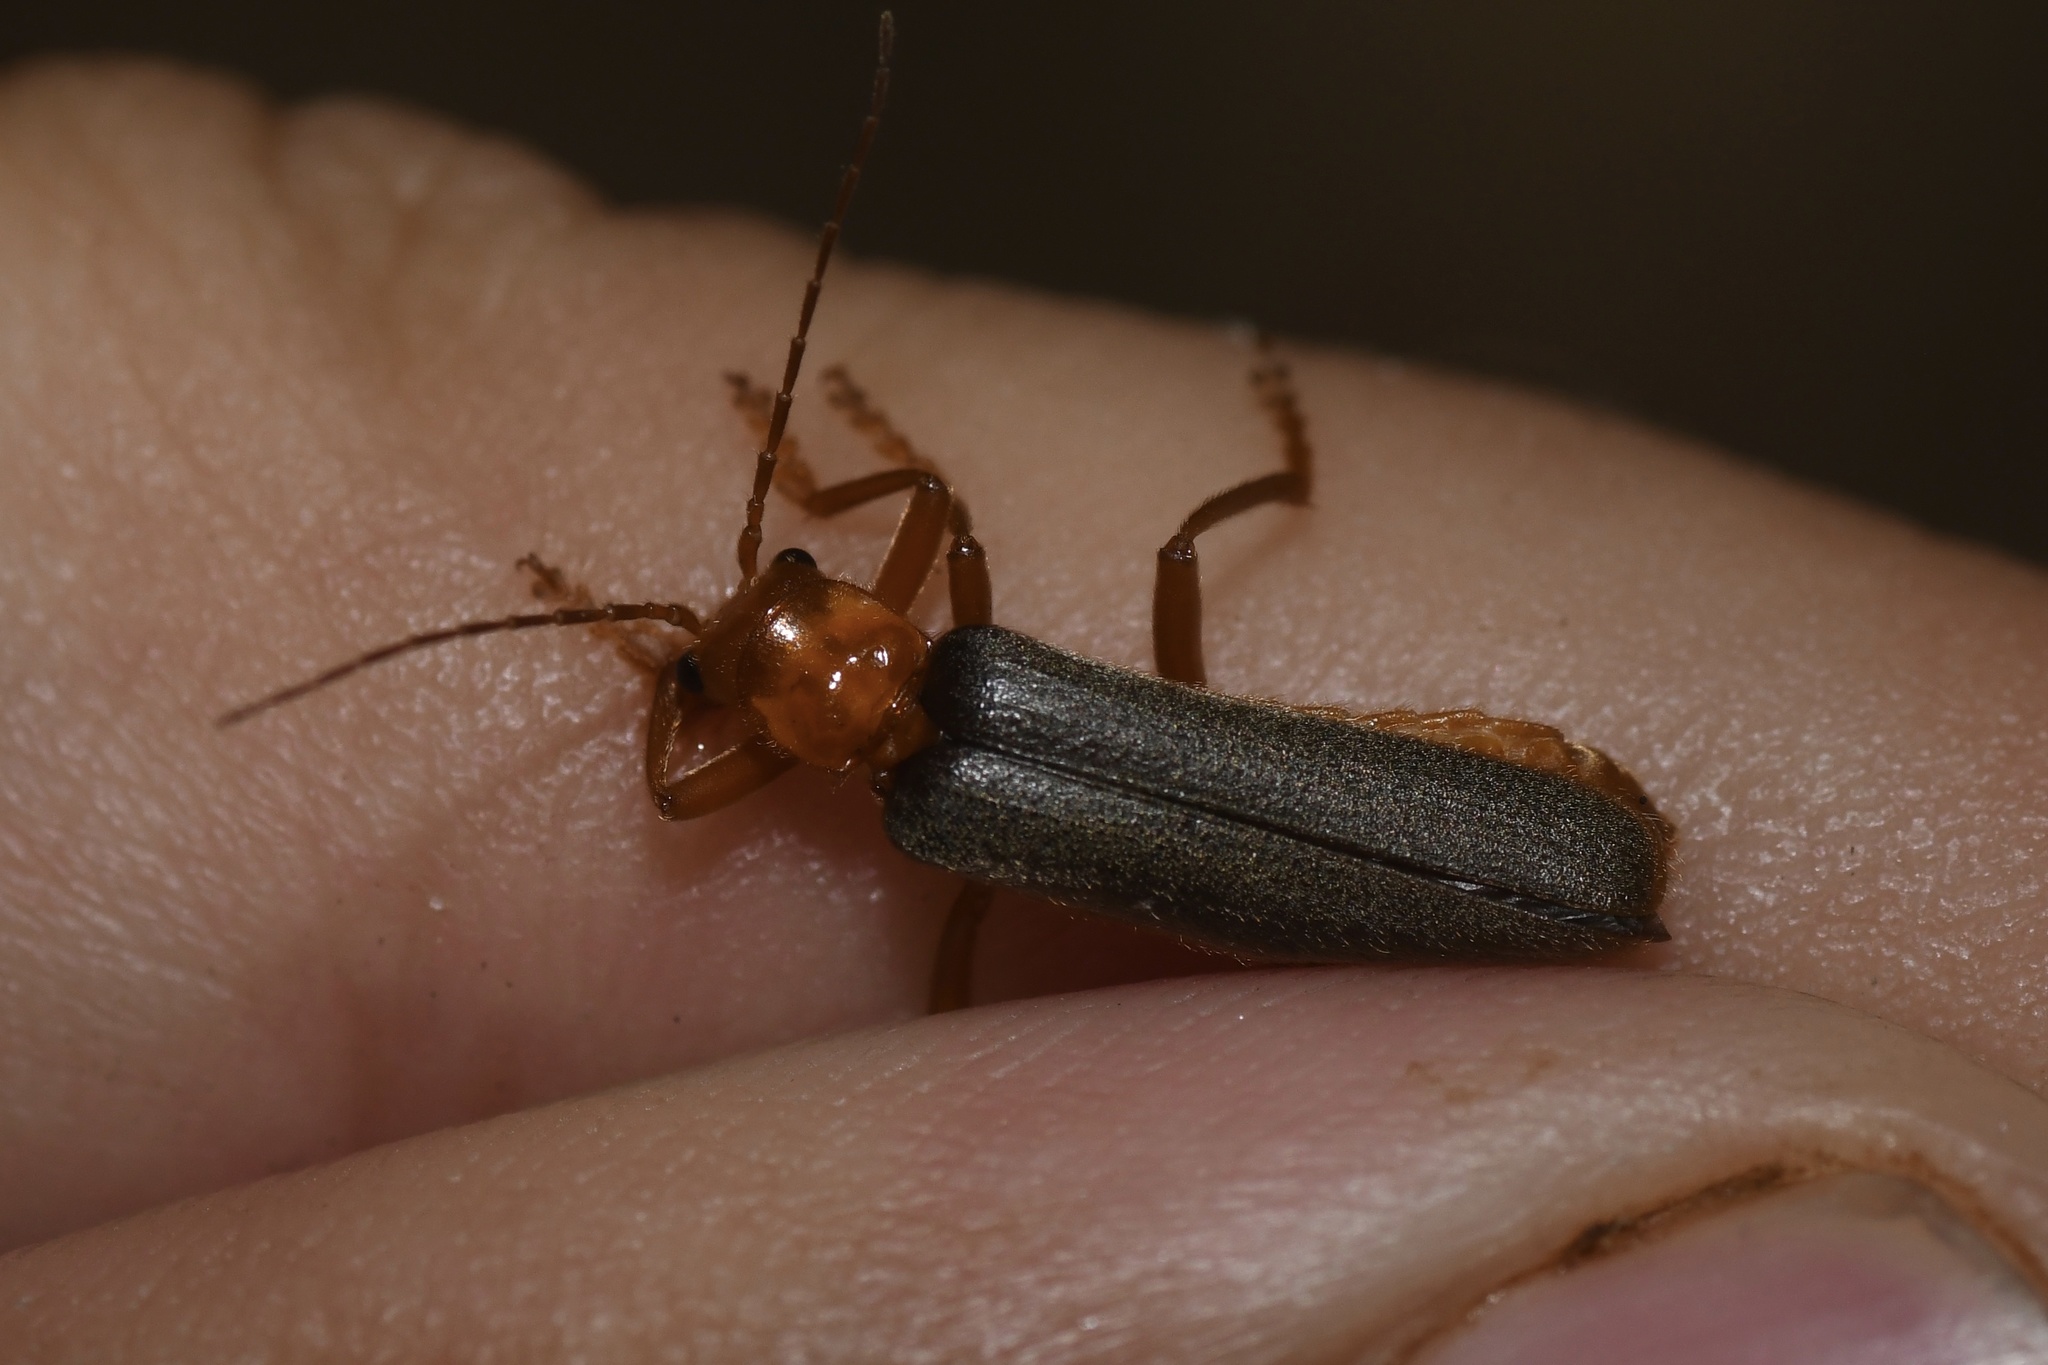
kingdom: Animalia
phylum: Arthropoda
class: Insecta
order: Coleoptera
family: Cantharidae
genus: Pacificanthia
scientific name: Pacificanthia rotundicollis
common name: Brown leatherwing beetle
